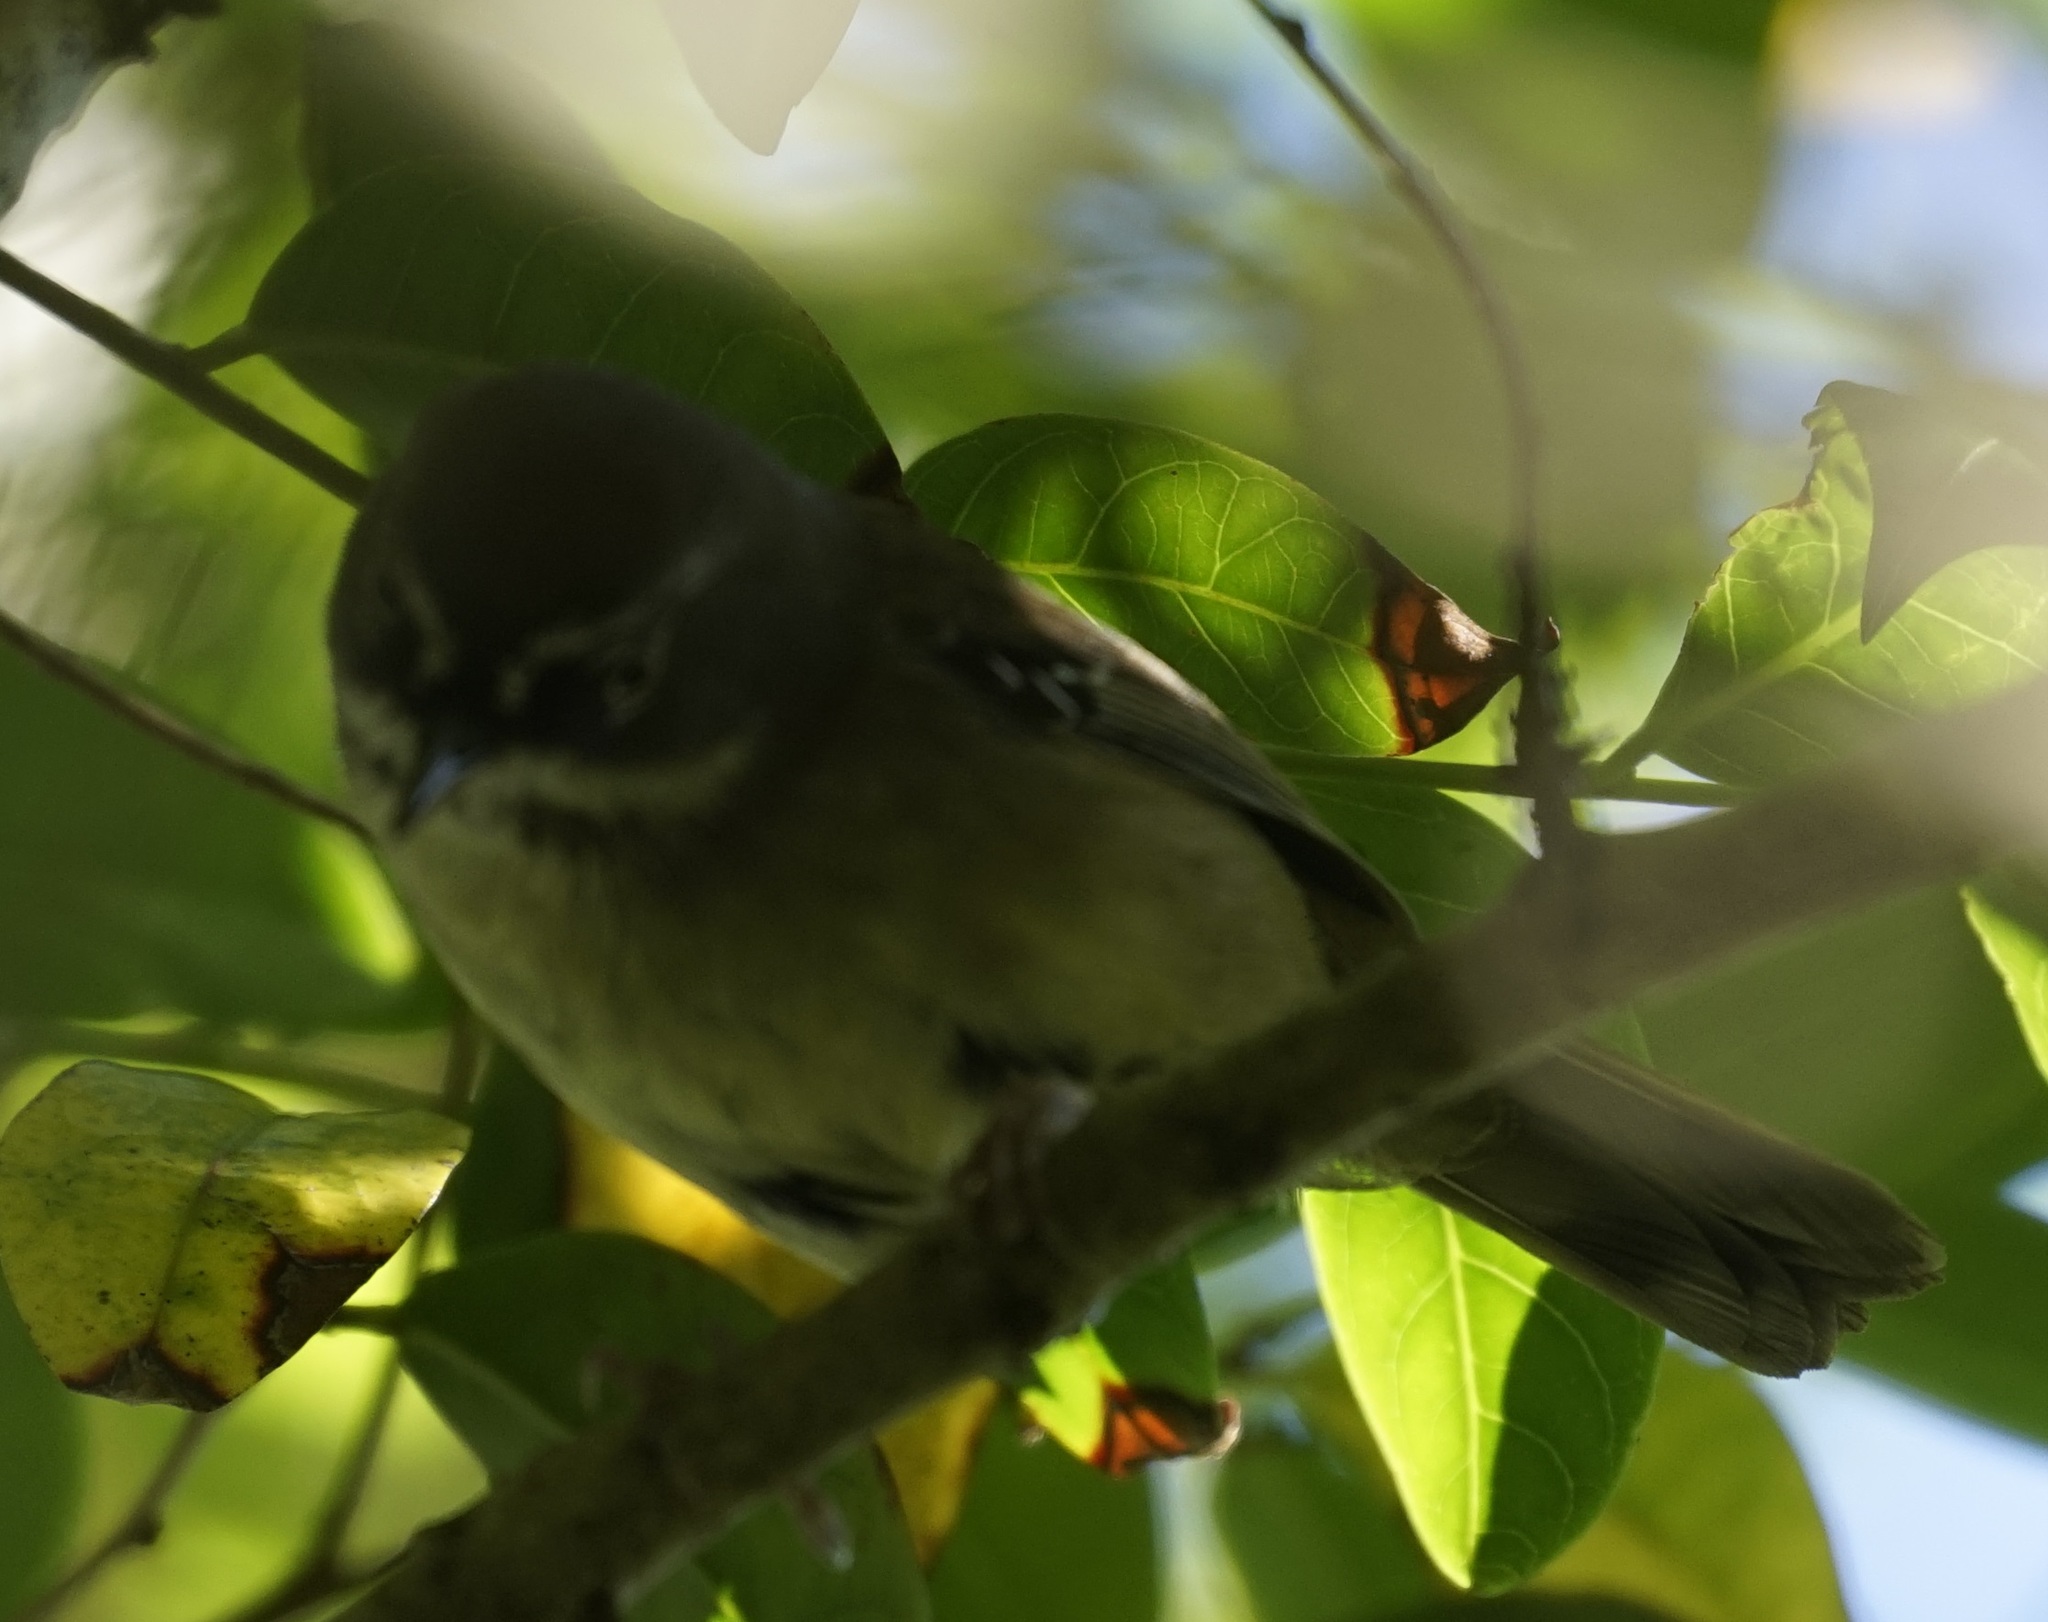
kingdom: Animalia
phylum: Chordata
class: Aves
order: Passeriformes
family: Acanthizidae
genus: Sericornis
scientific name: Sericornis frontalis
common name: White-browed scrubwren
